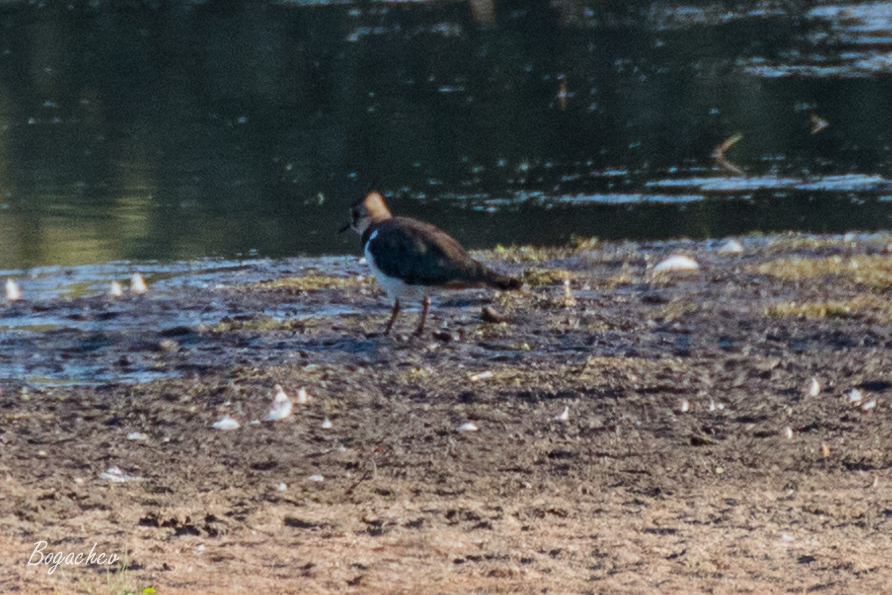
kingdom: Animalia
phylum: Chordata
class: Aves
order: Charadriiformes
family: Charadriidae
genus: Vanellus
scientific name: Vanellus vanellus
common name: Northern lapwing
